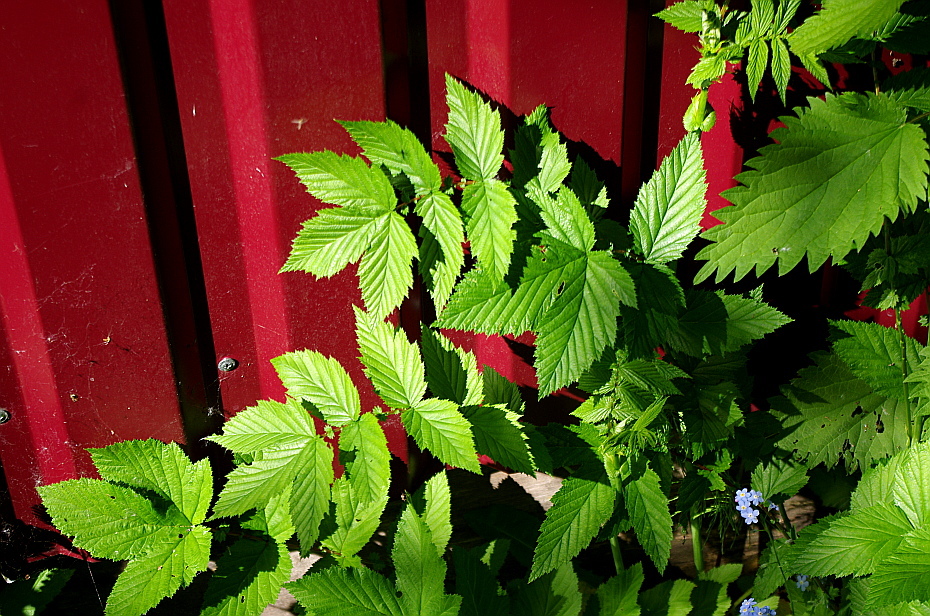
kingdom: Plantae
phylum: Tracheophyta
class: Magnoliopsida
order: Rosales
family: Rosaceae
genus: Filipendula
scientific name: Filipendula ulmaria
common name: Meadowsweet
